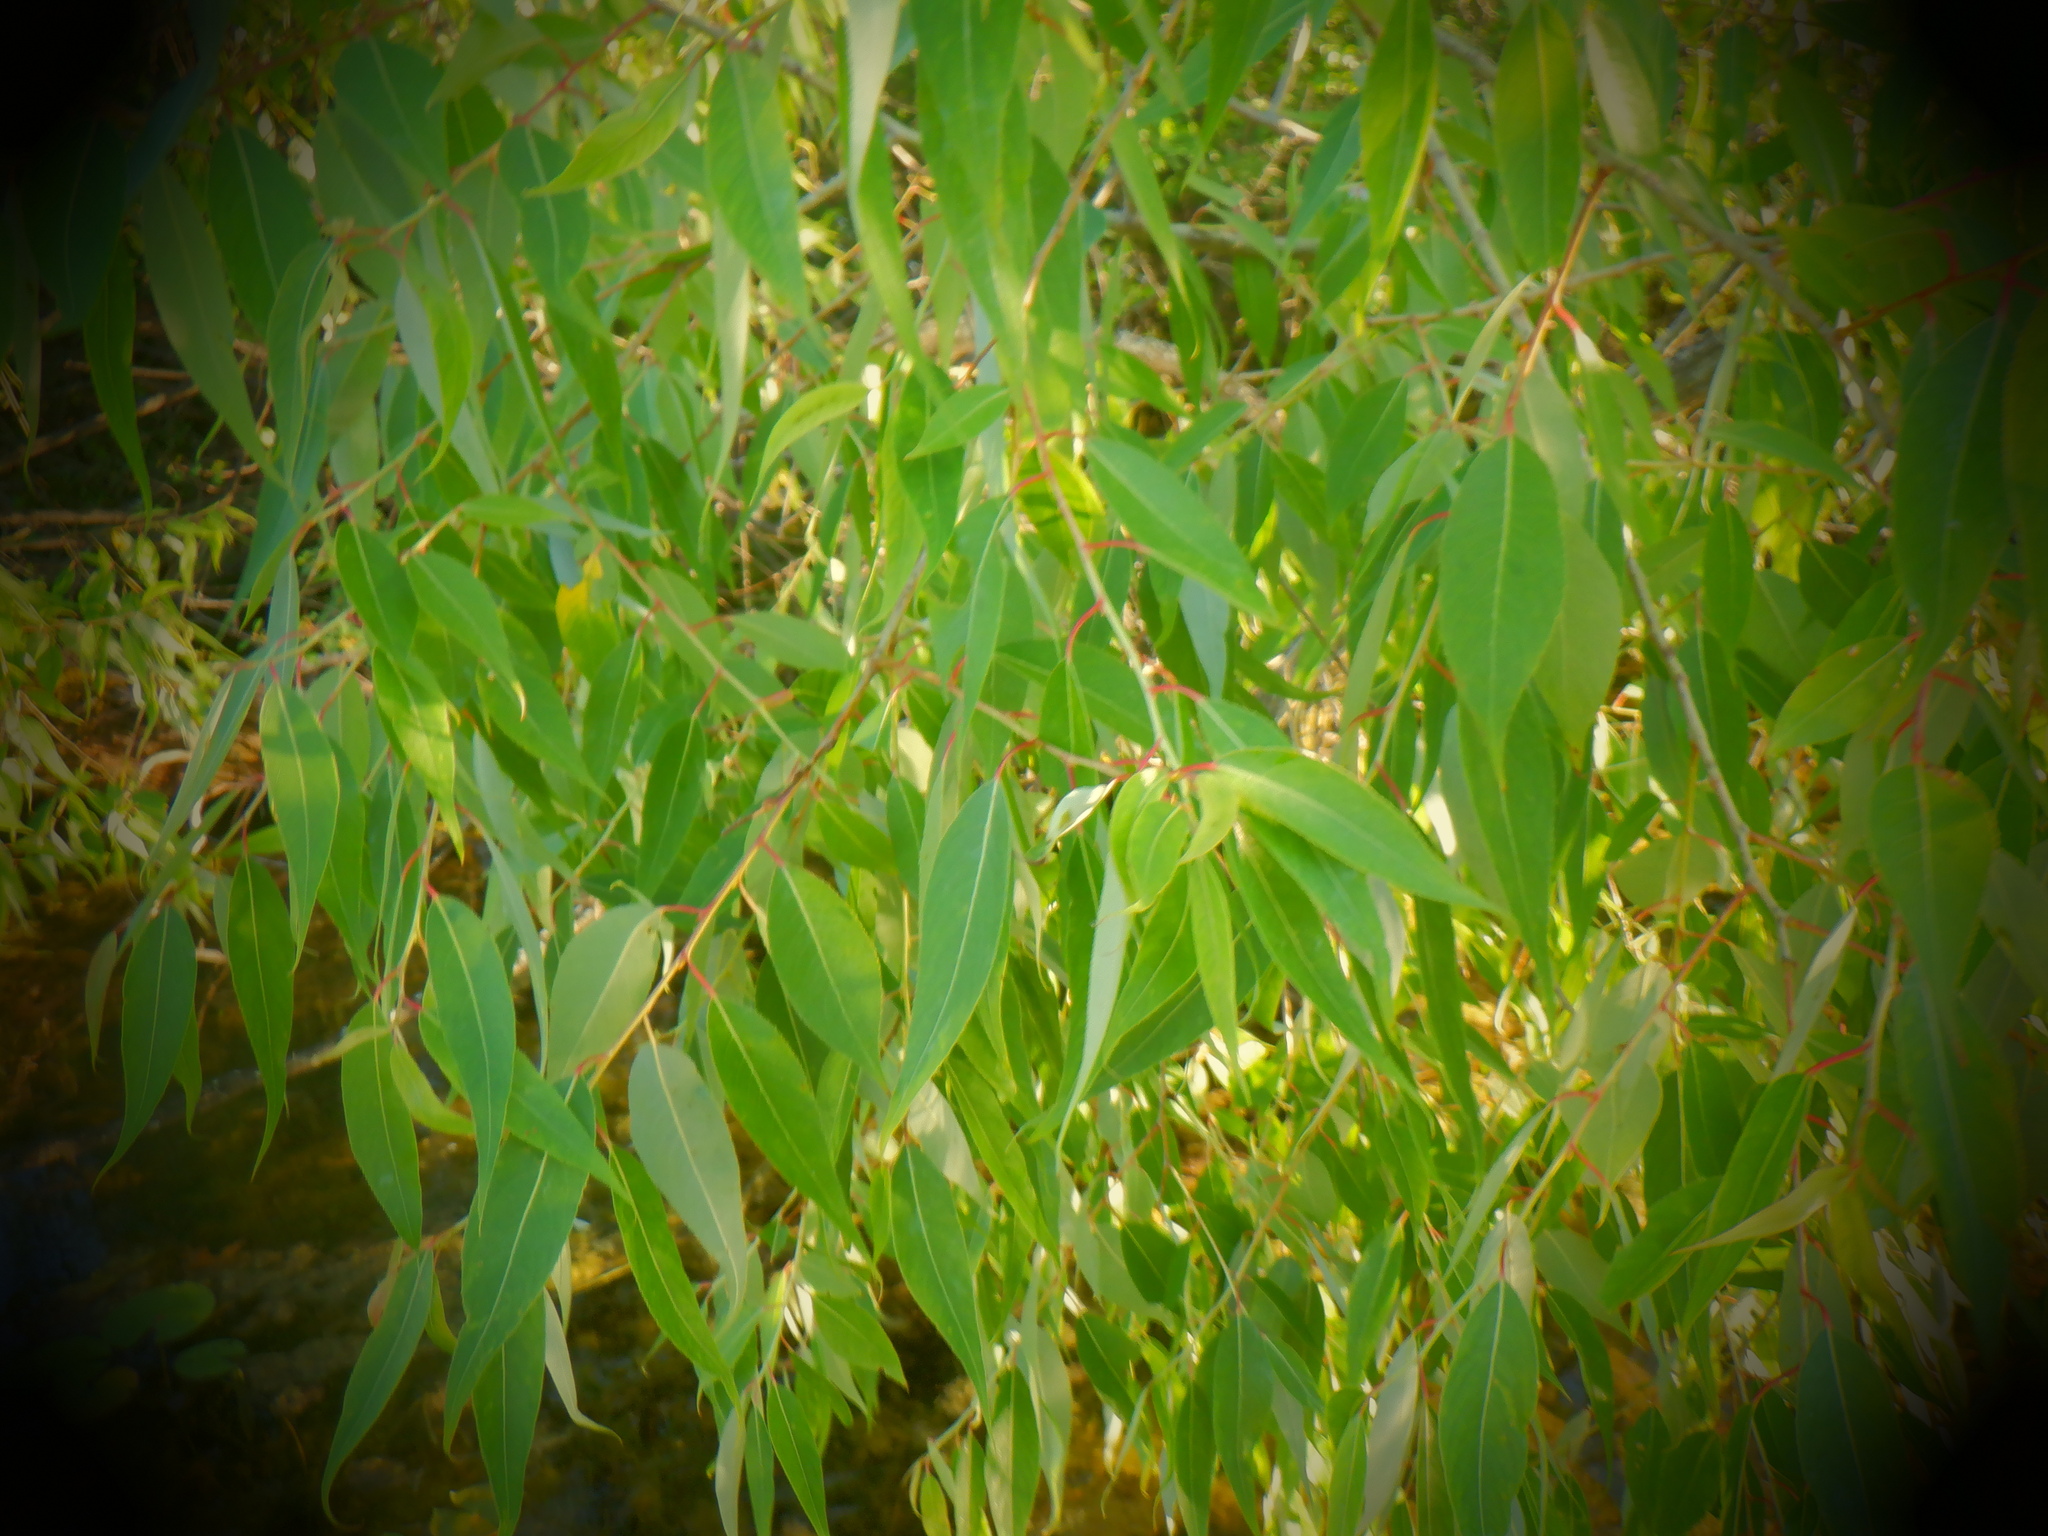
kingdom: Plantae
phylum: Tracheophyta
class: Magnoliopsida
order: Malpighiales
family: Salicaceae
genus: Salix
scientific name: Salix amygdaloides
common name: Peach leaf willow
